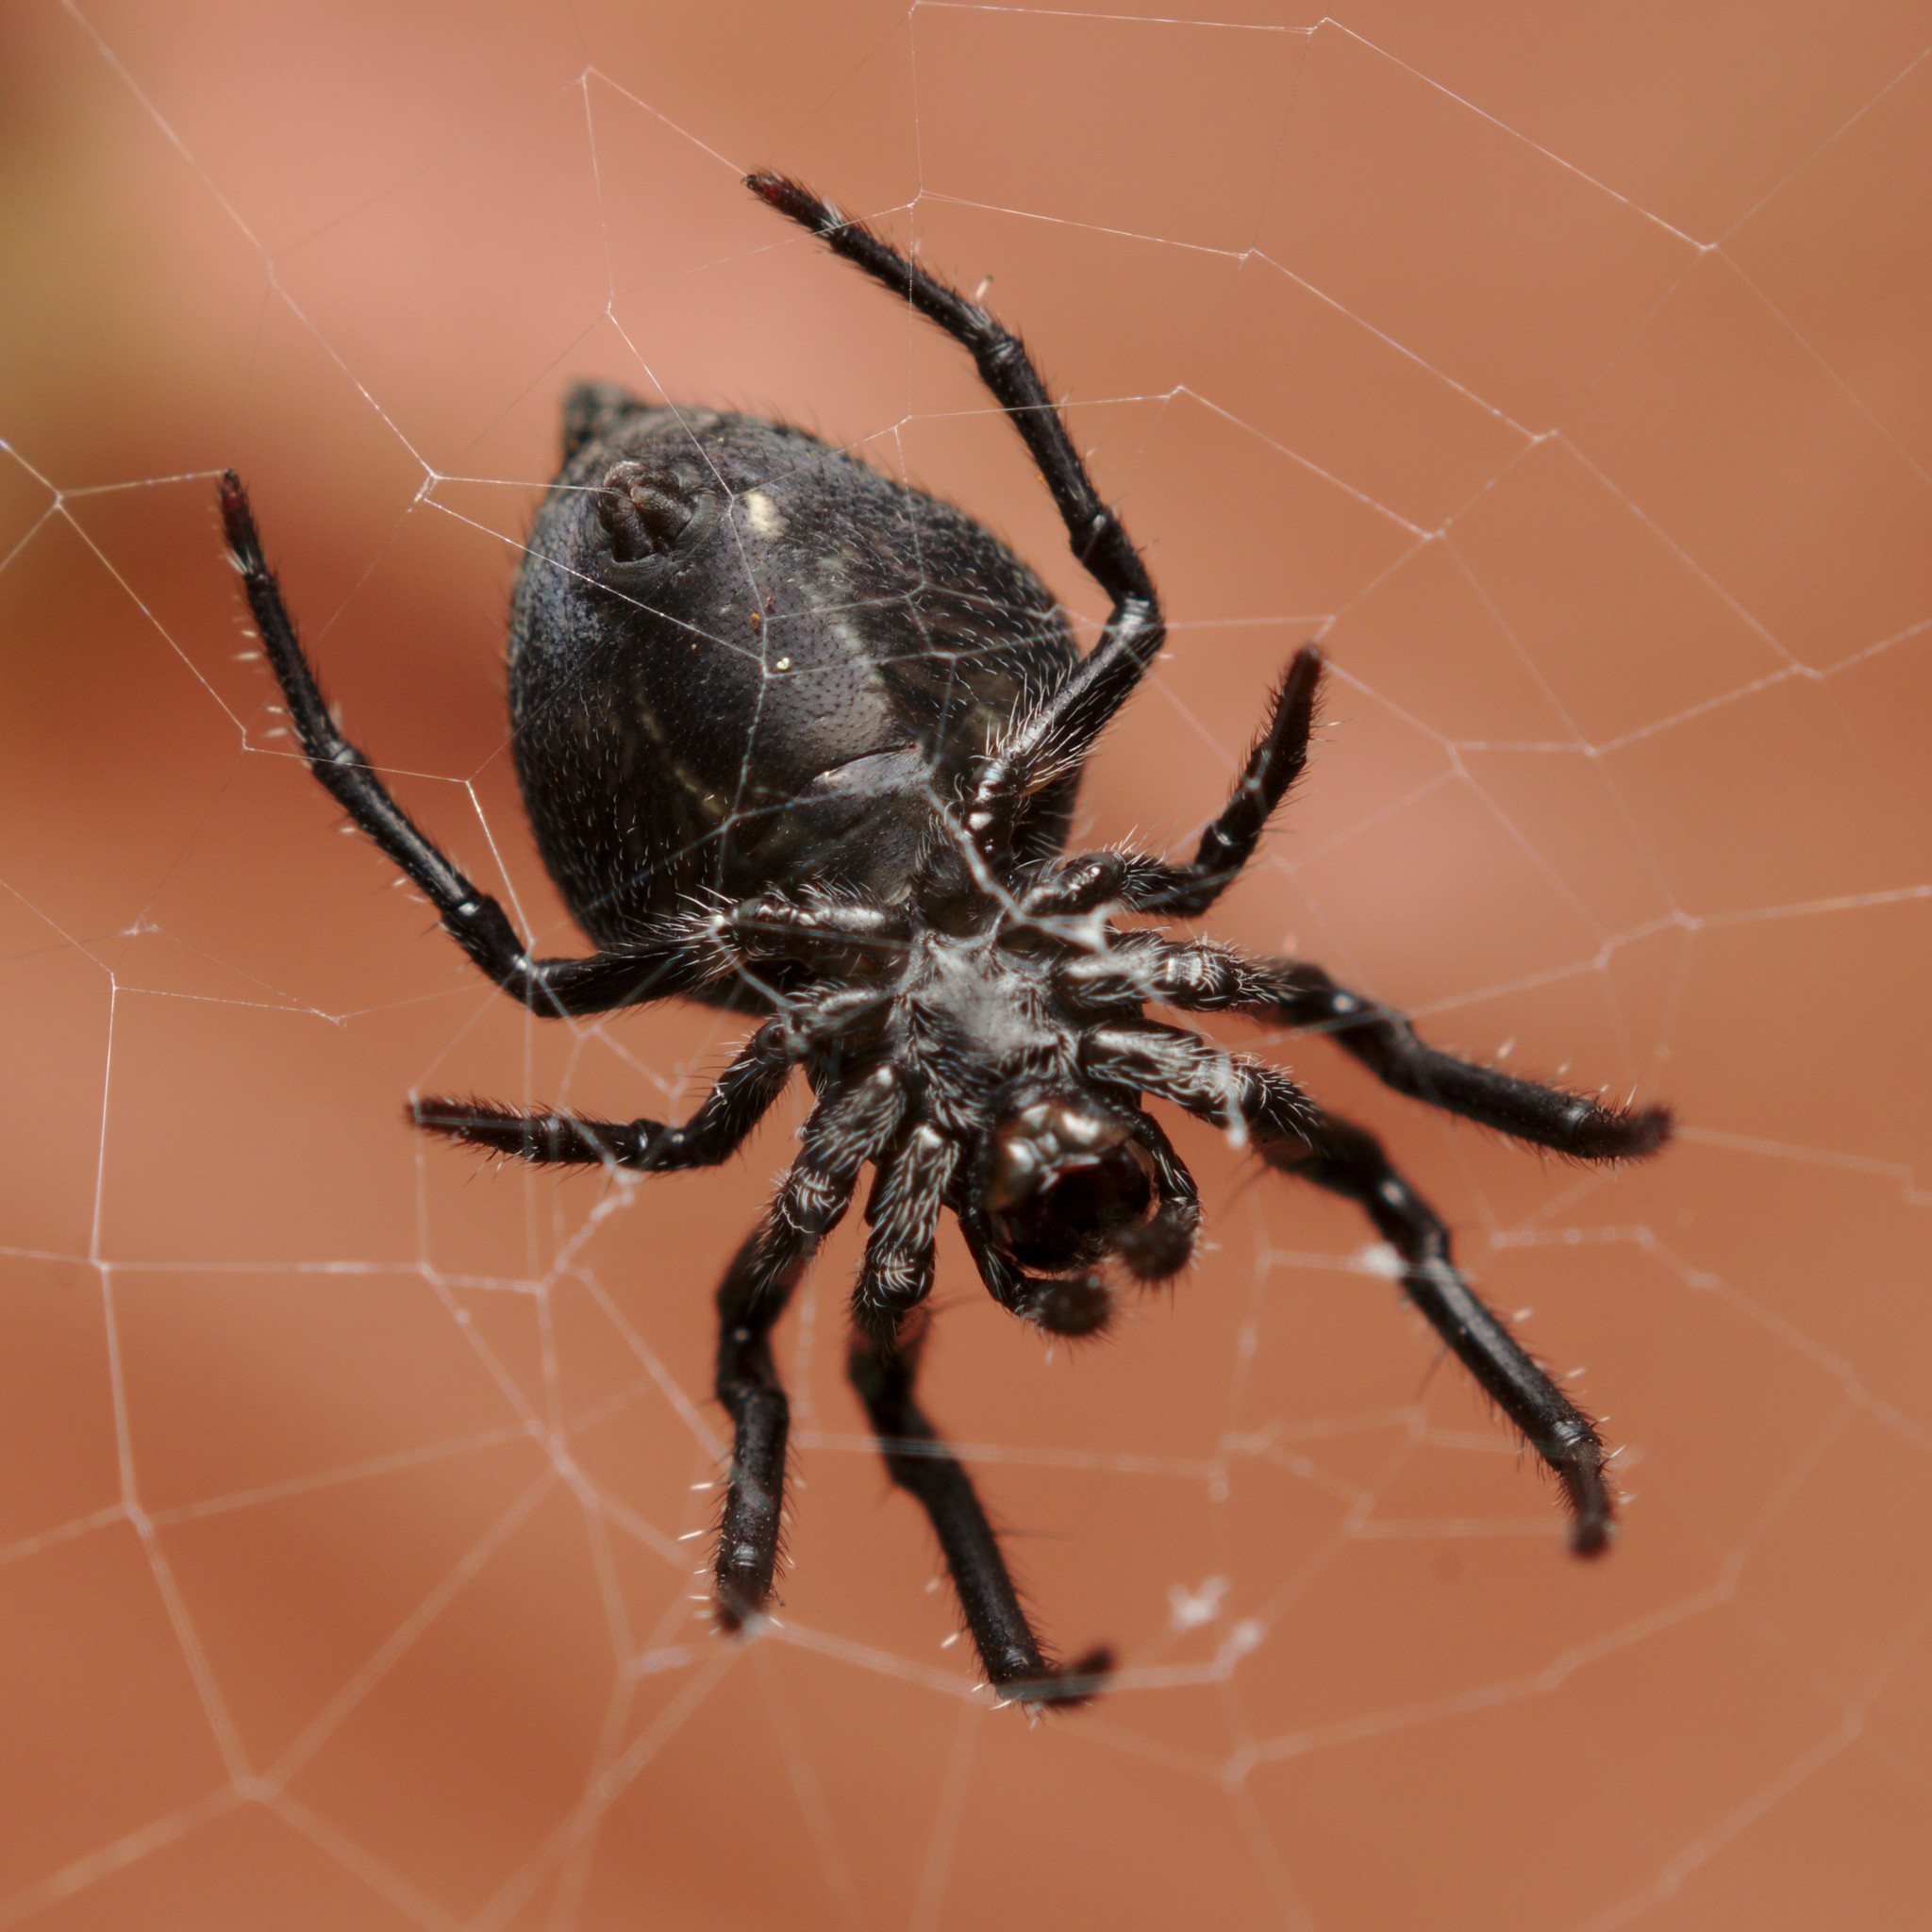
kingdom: Animalia
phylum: Arthropoda
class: Arachnida
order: Araneae
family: Araneidae
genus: Eriophora
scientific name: Eriophora pustulosa
